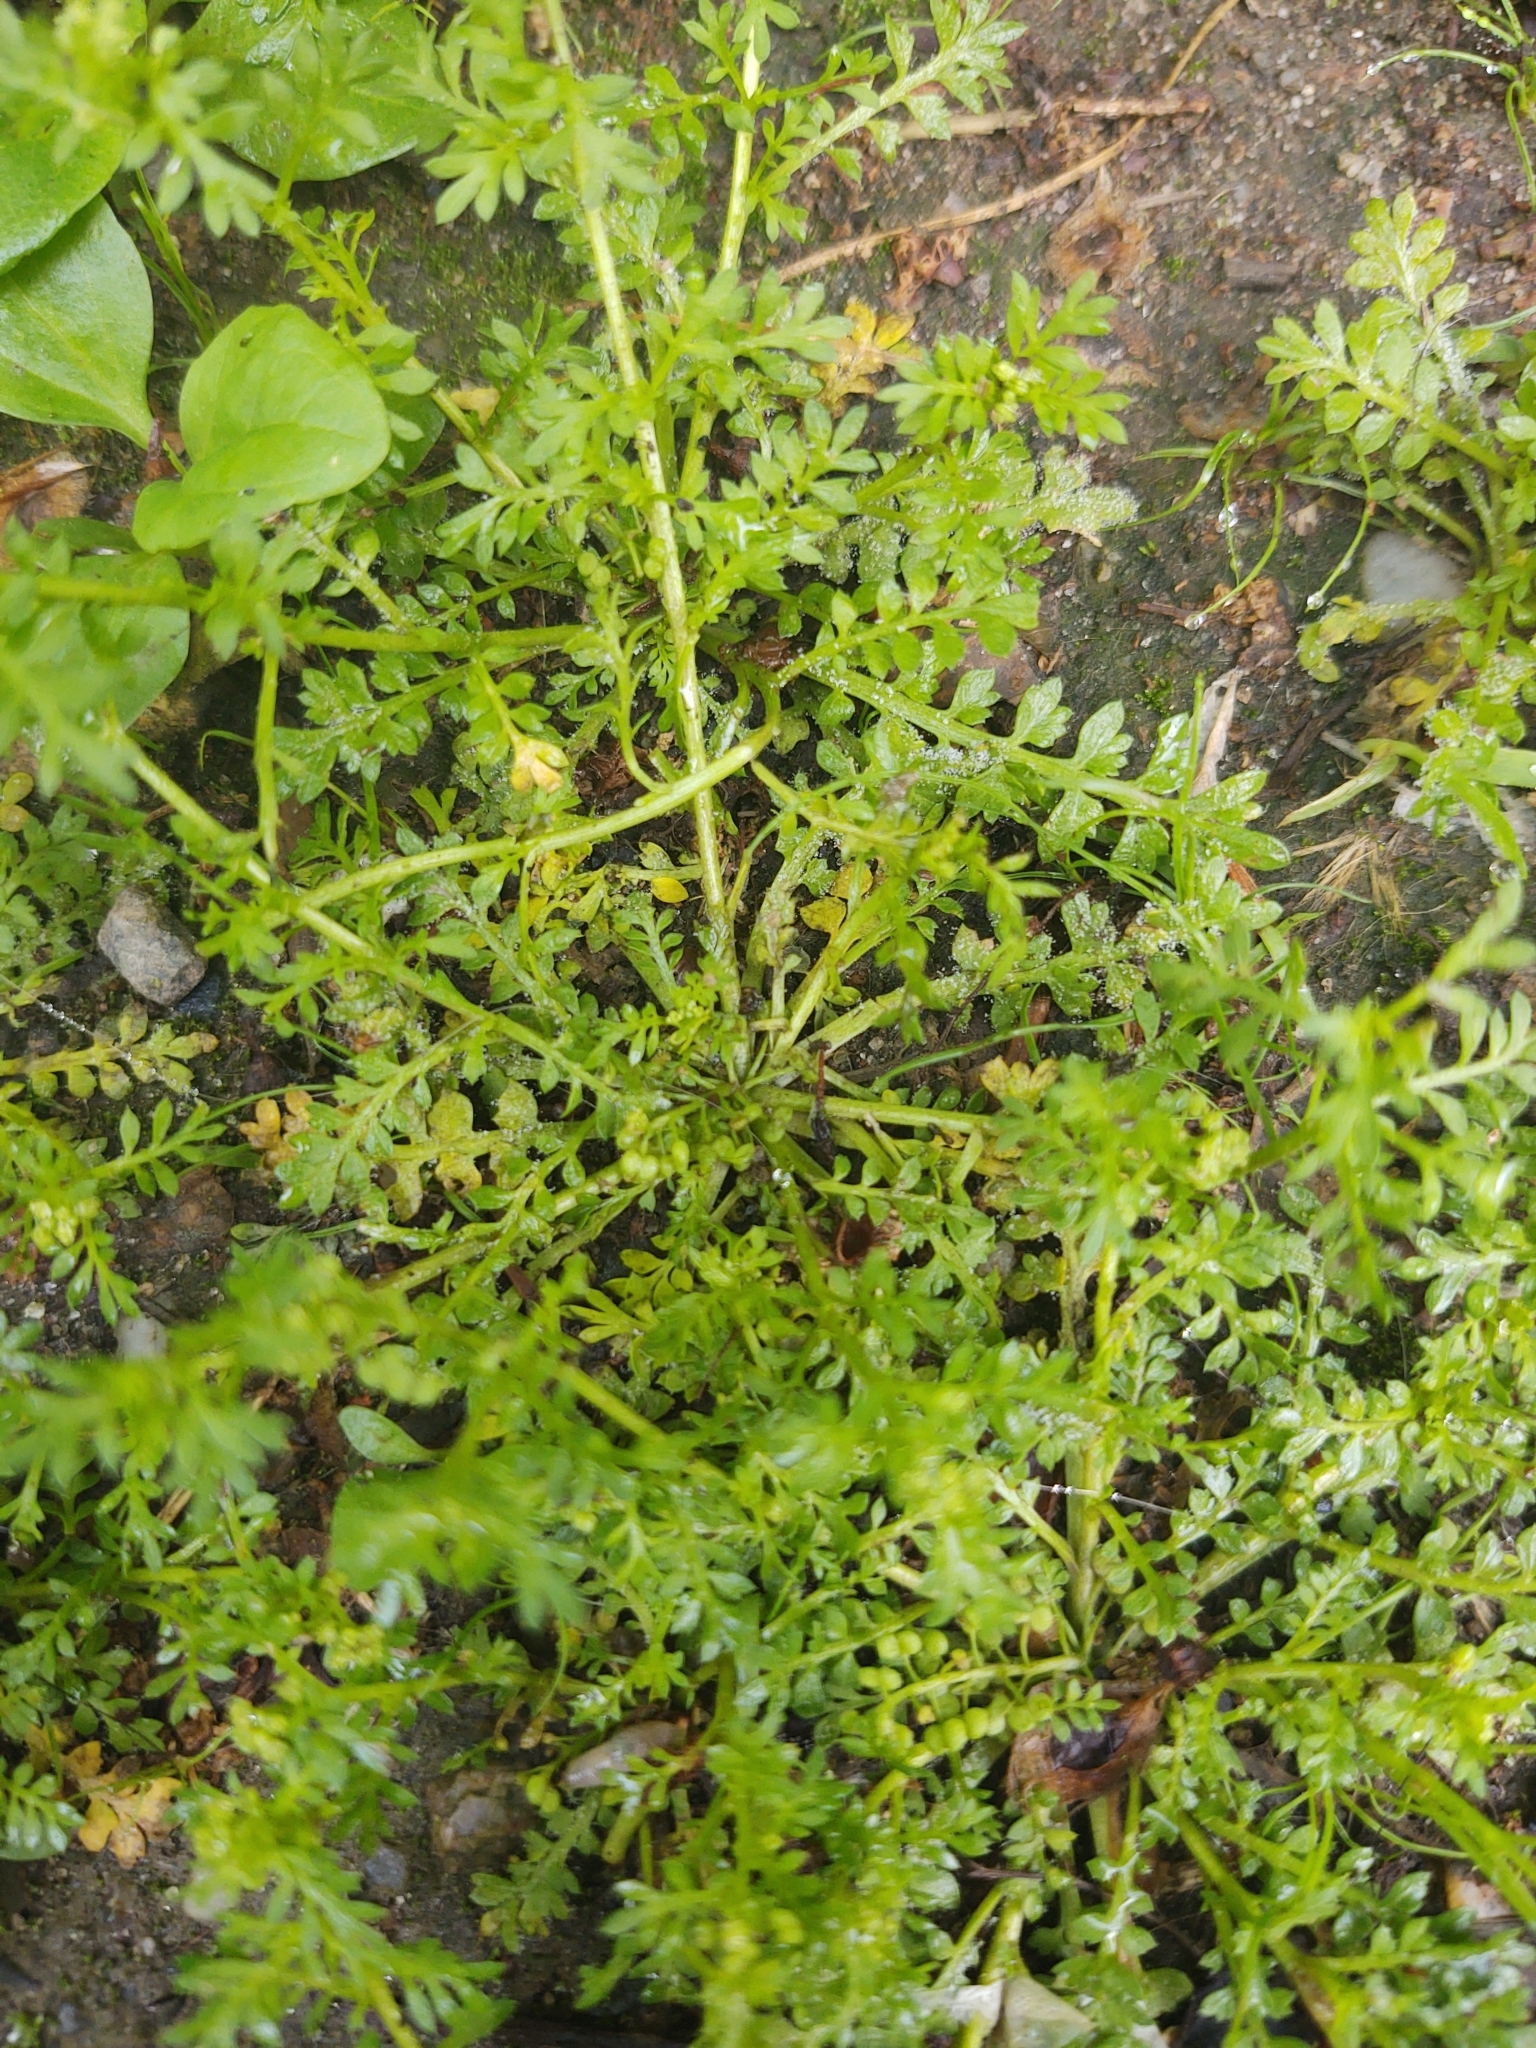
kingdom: Plantae
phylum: Tracheophyta
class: Magnoliopsida
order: Brassicales
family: Brassicaceae
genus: Lepidium
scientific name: Lepidium didymum
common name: Lesser swinecress
